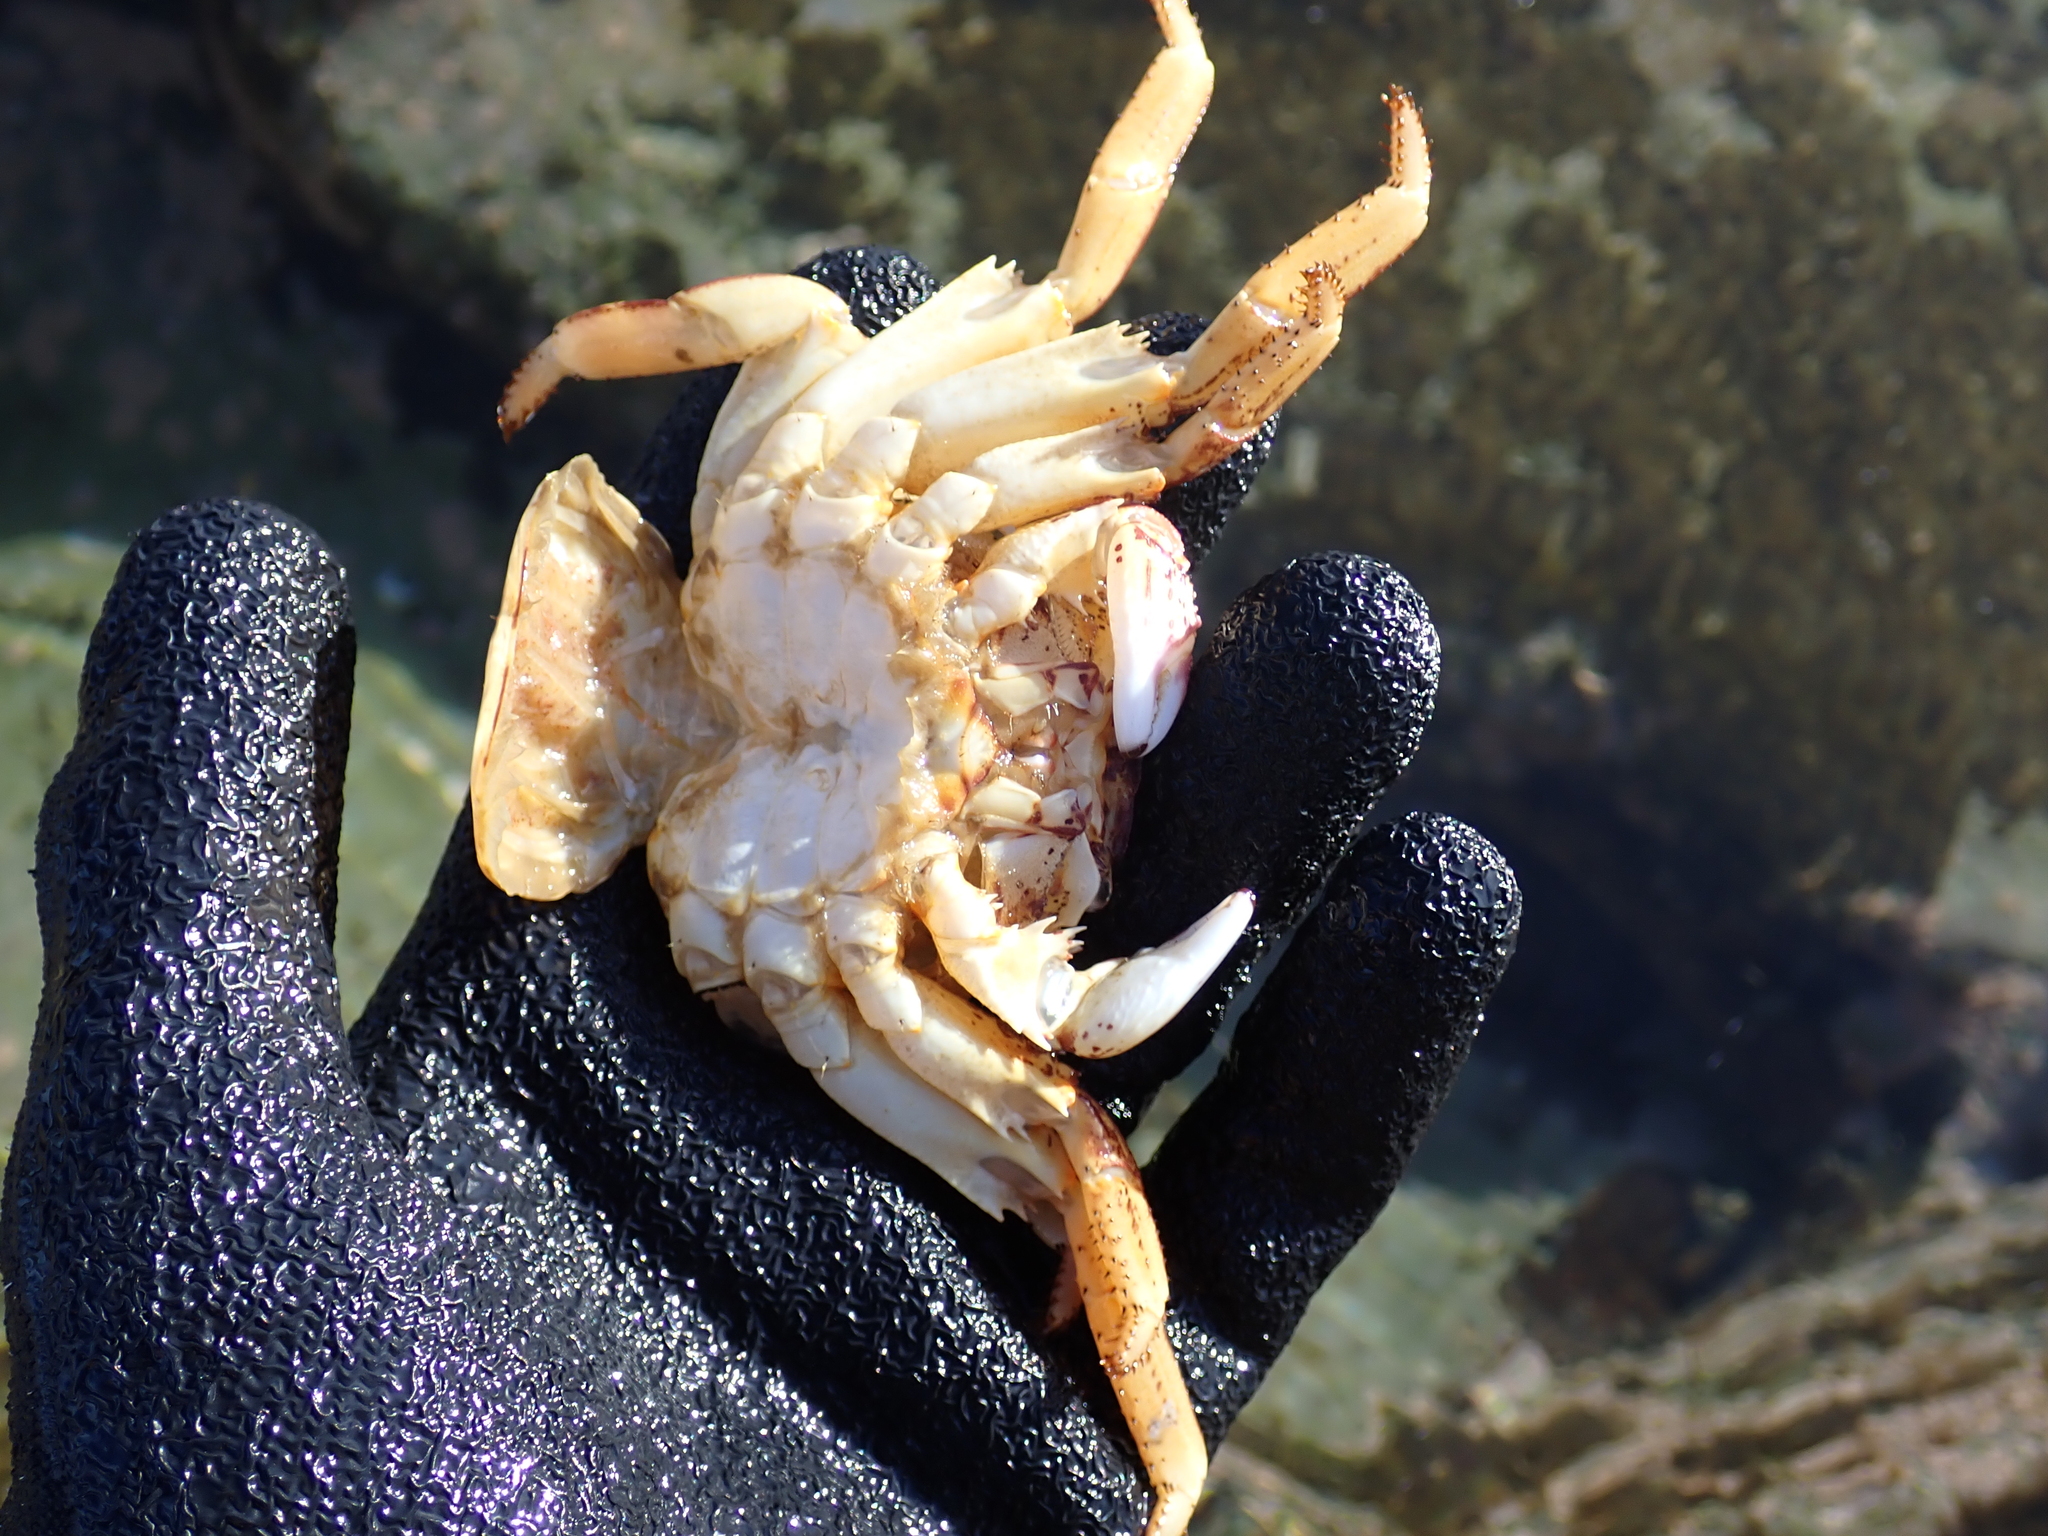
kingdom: Animalia
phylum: Arthropoda
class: Malacostraca
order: Decapoda
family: Grapsidae
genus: Grapsus
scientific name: Grapsus albolineatus
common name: Mottled lightfoot crab
